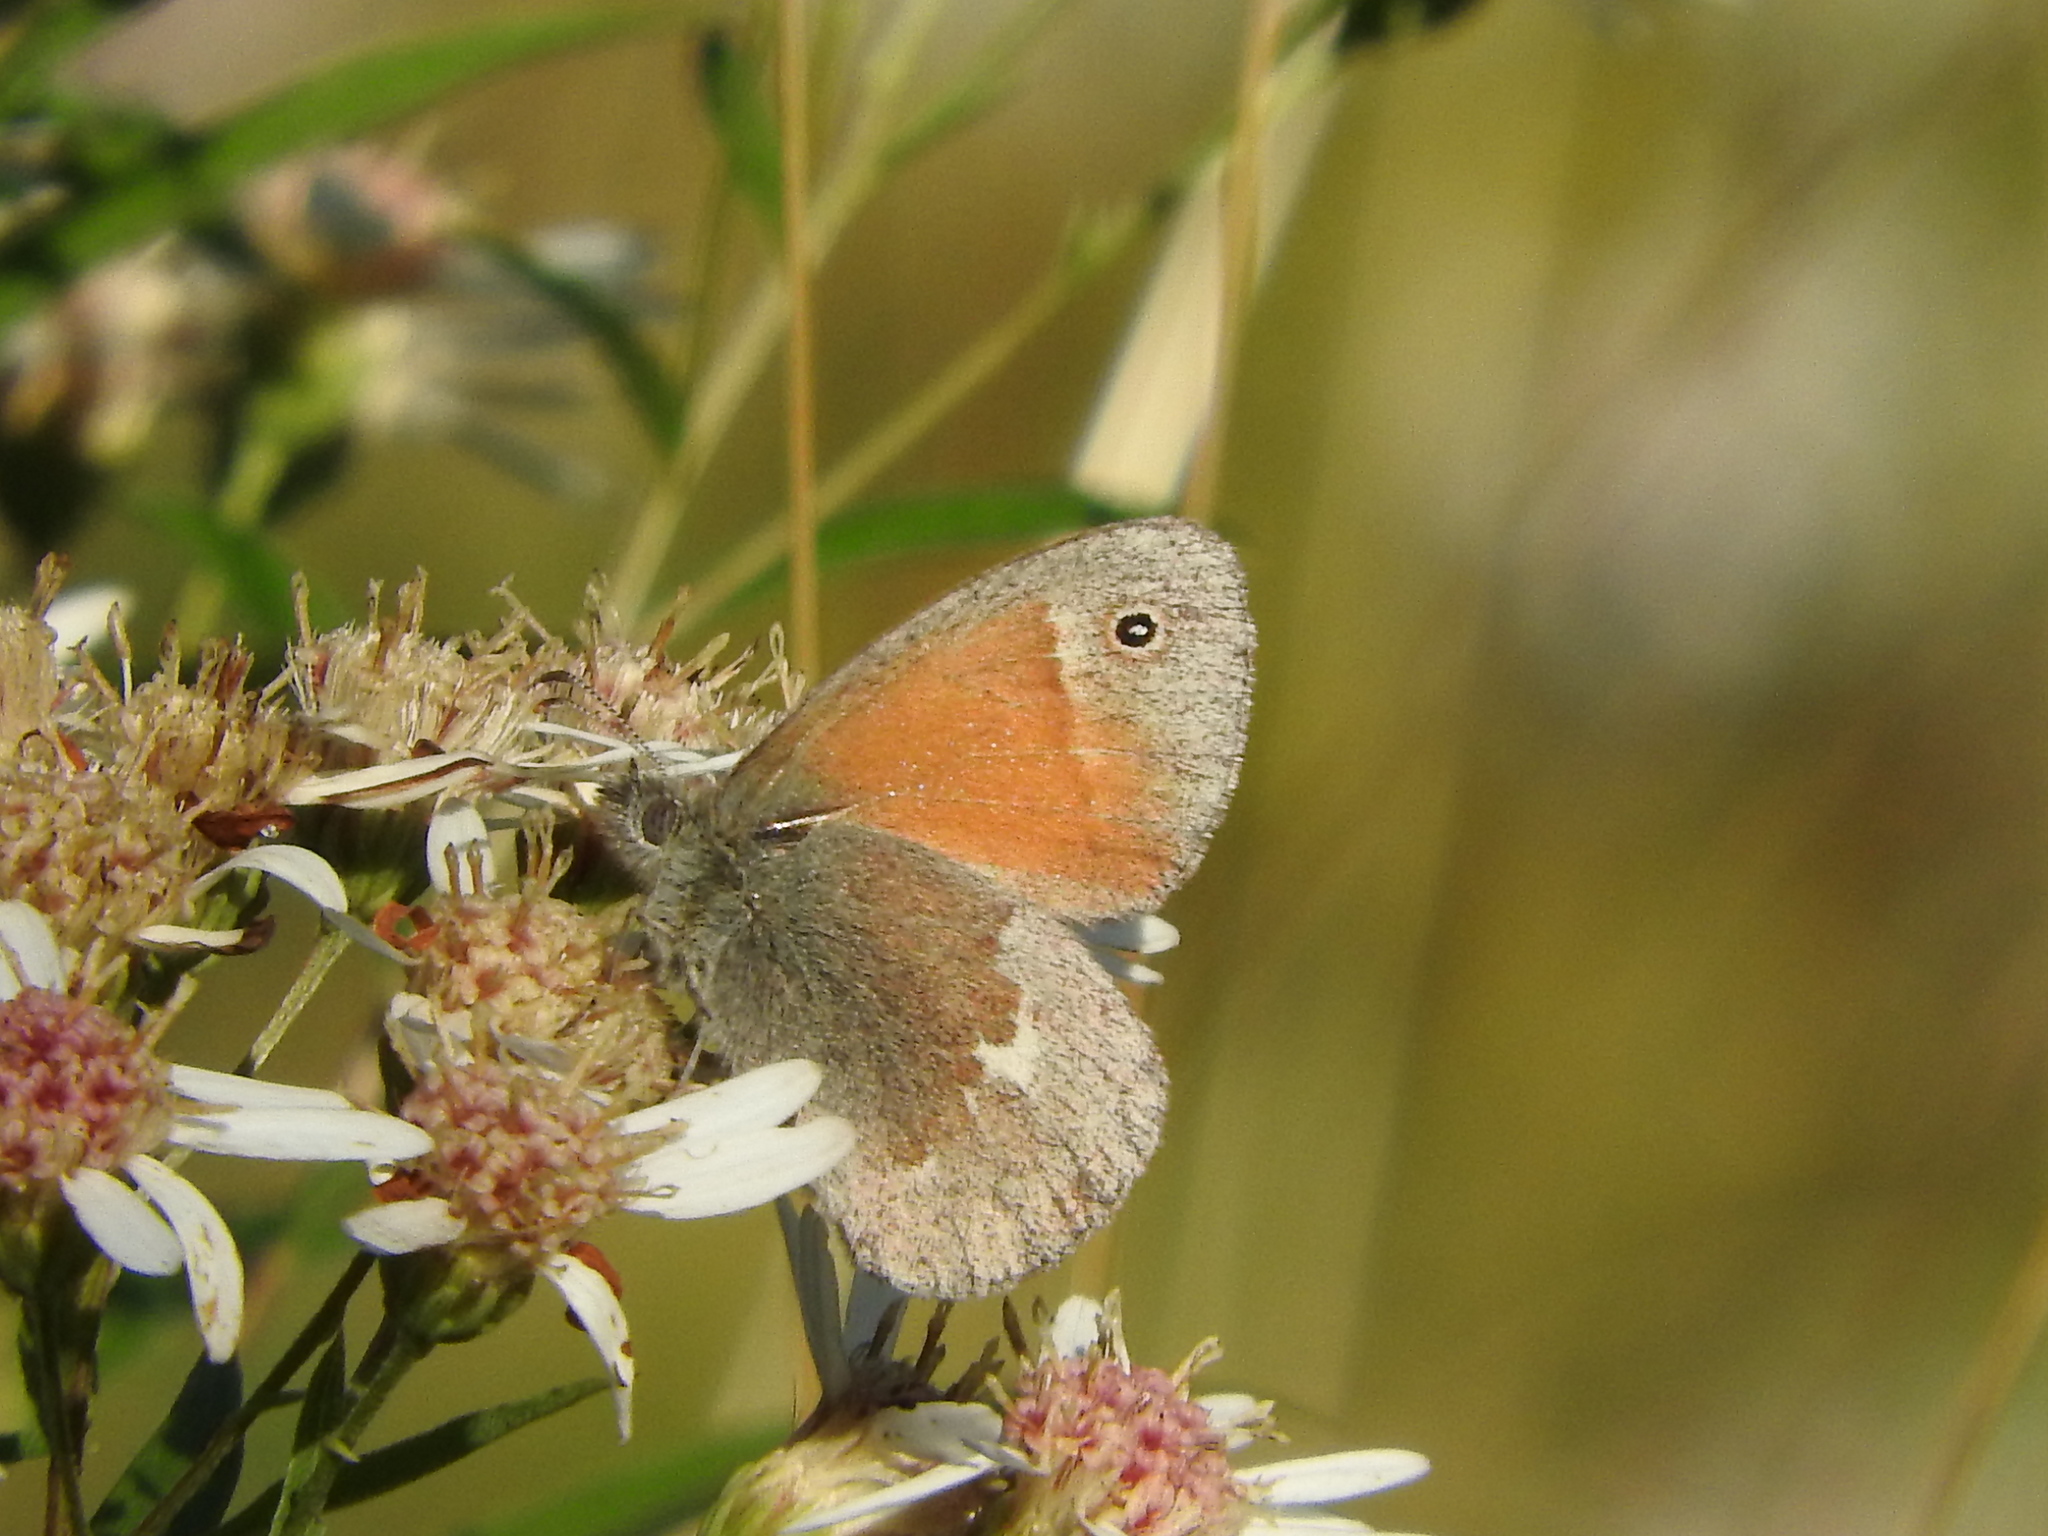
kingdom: Animalia
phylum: Arthropoda
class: Insecta
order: Lepidoptera
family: Nymphalidae
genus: Coenonympha
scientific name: Coenonympha california
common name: Common ringlet
